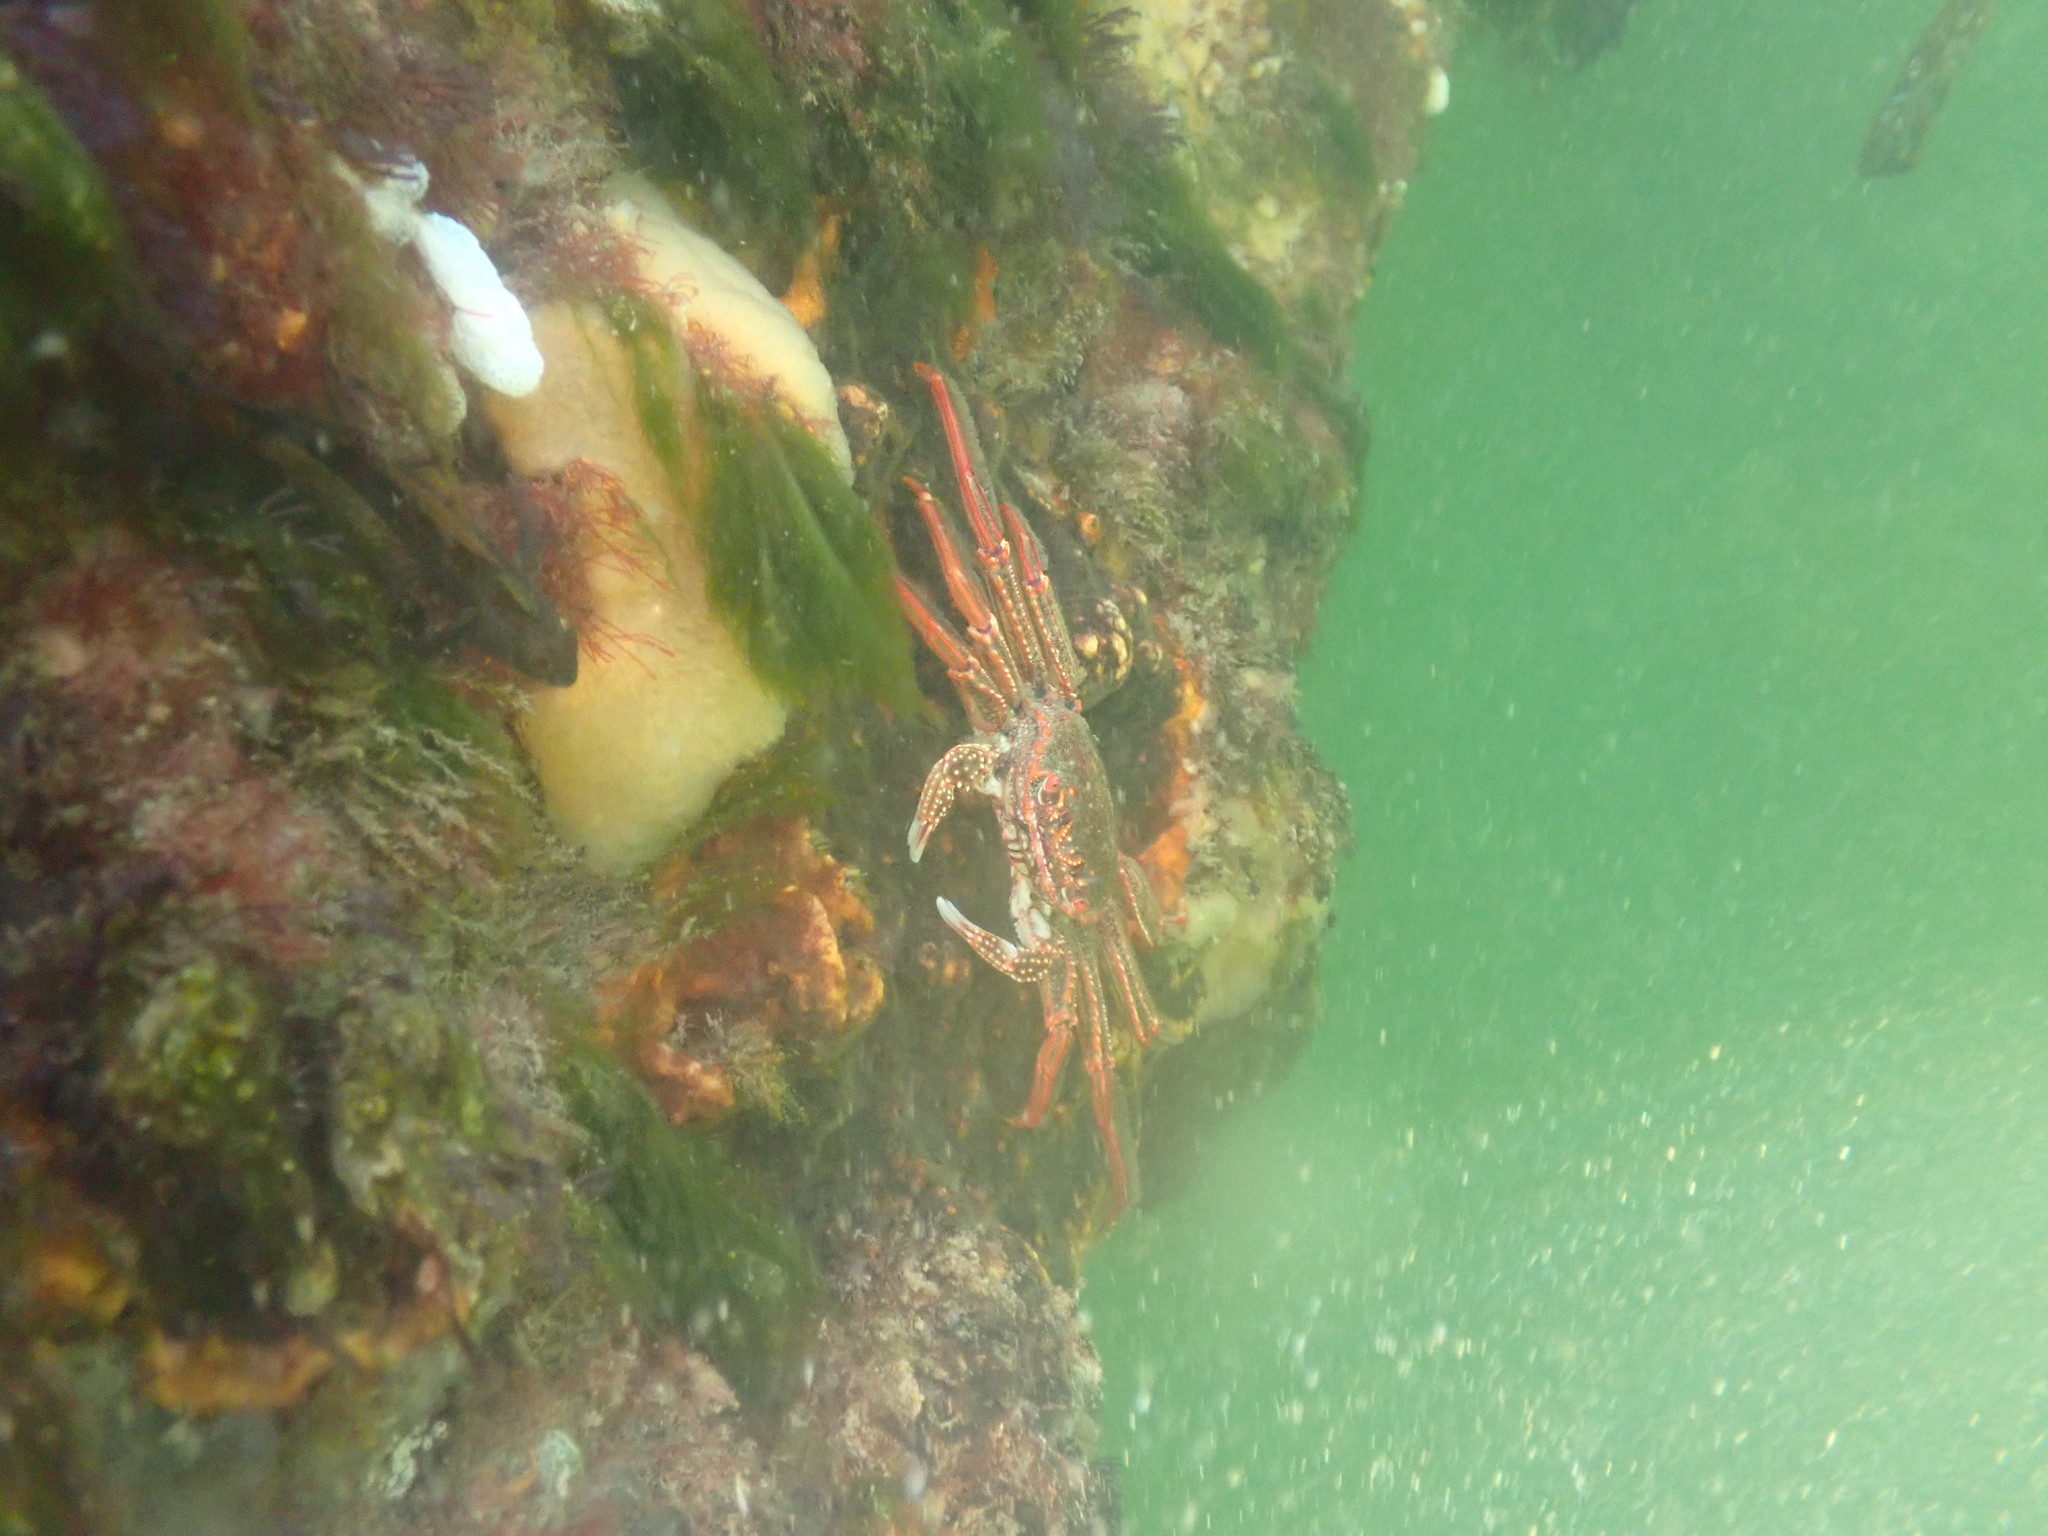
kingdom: Animalia
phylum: Arthropoda
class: Malacostraca
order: Decapoda
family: Plagusiidae
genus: Guinusia
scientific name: Guinusia chabrus
